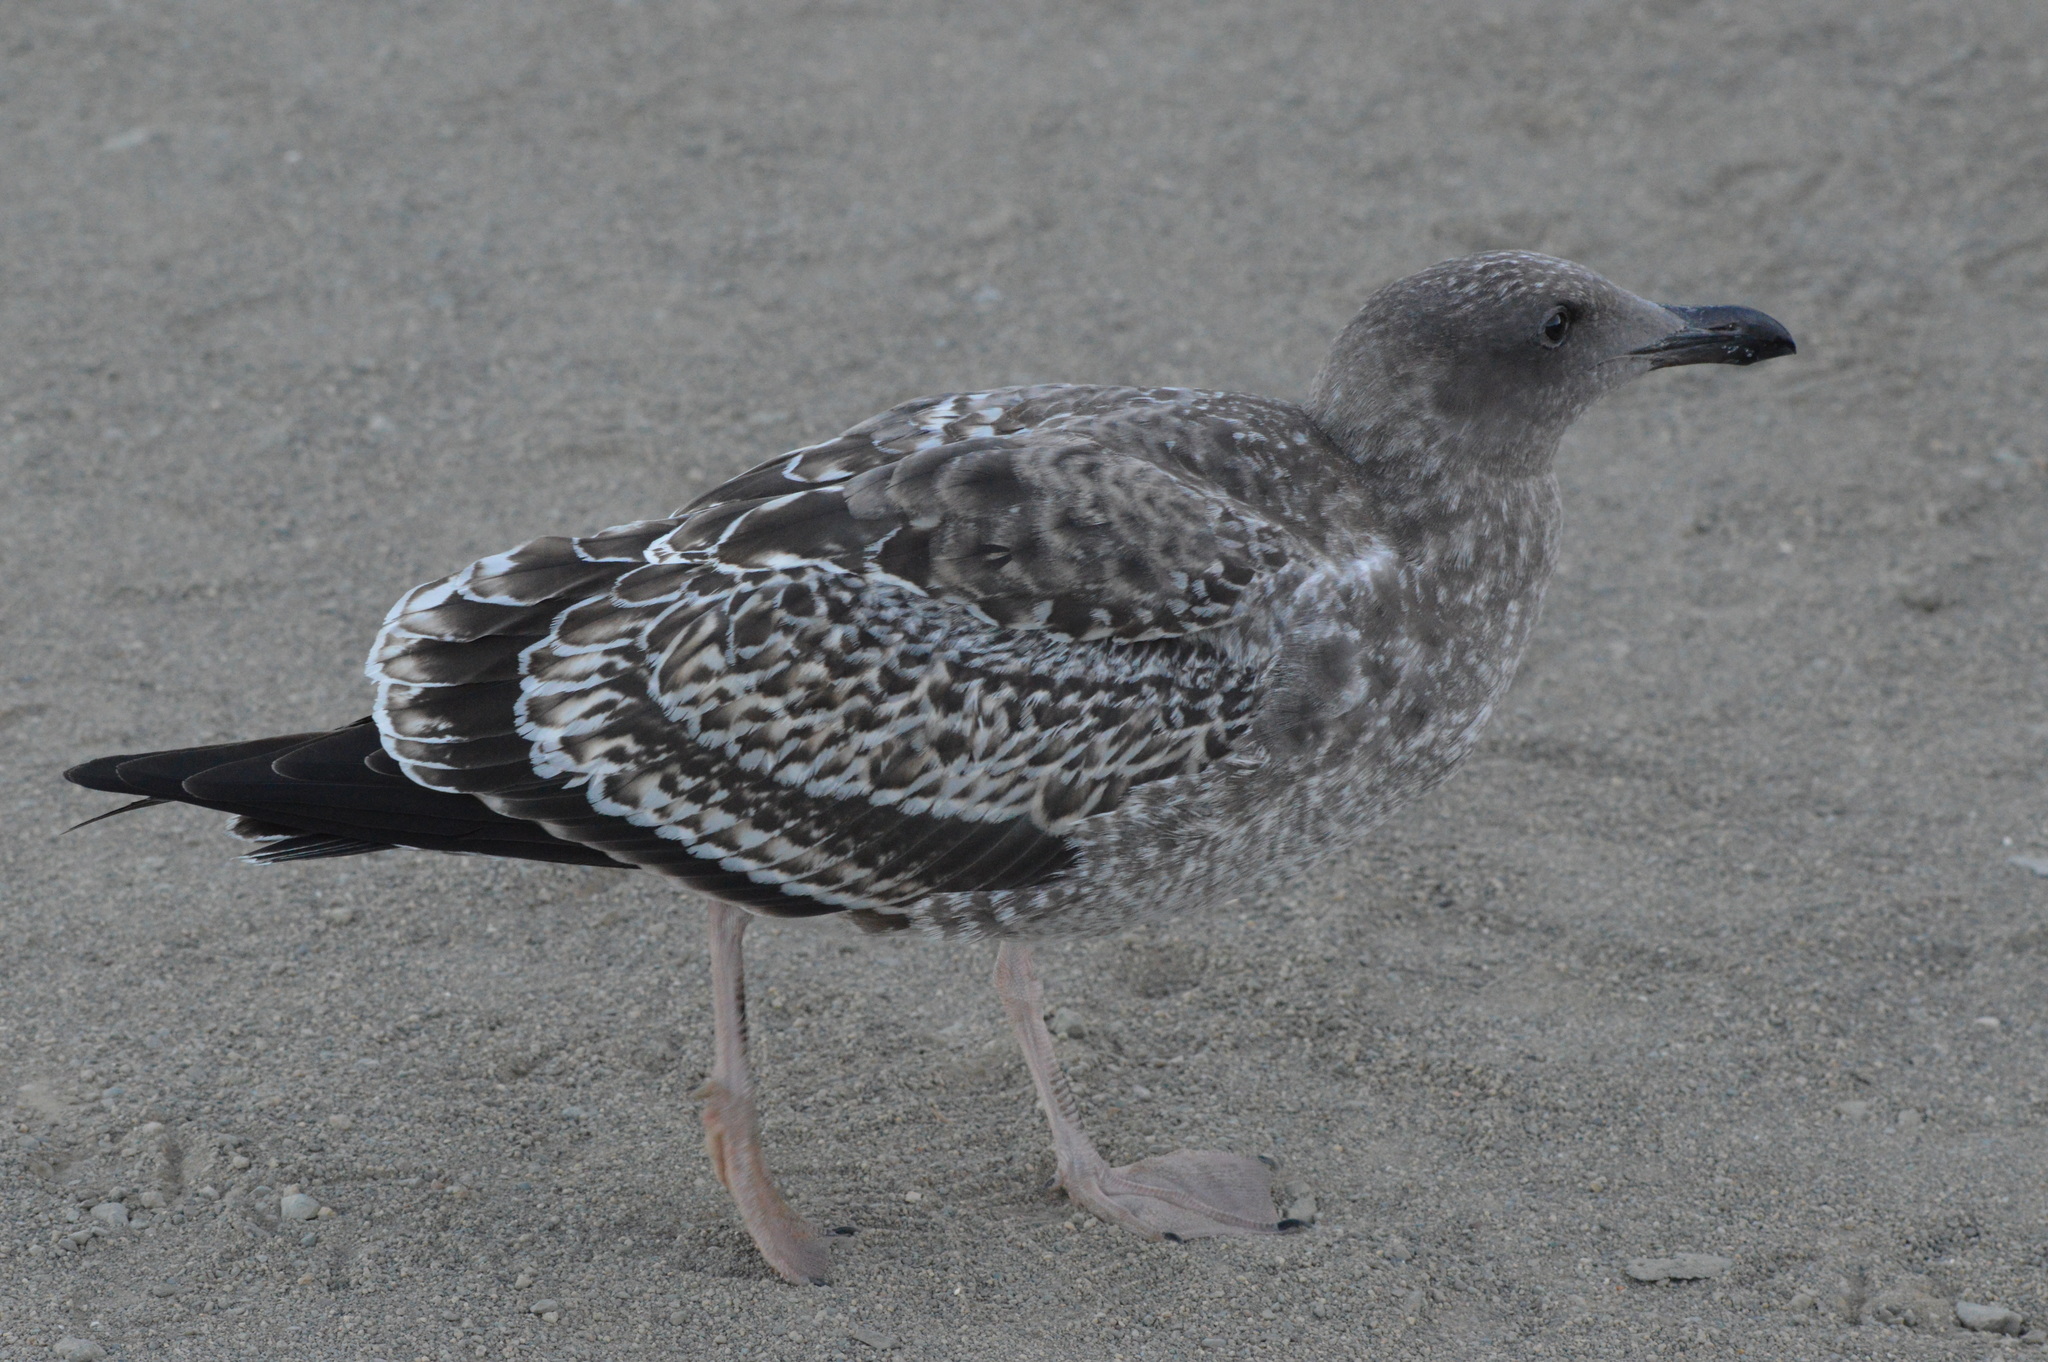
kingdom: Animalia
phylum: Chordata
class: Aves
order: Charadriiformes
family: Laridae
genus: Larus
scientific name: Larus occidentalis
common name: Western gull
